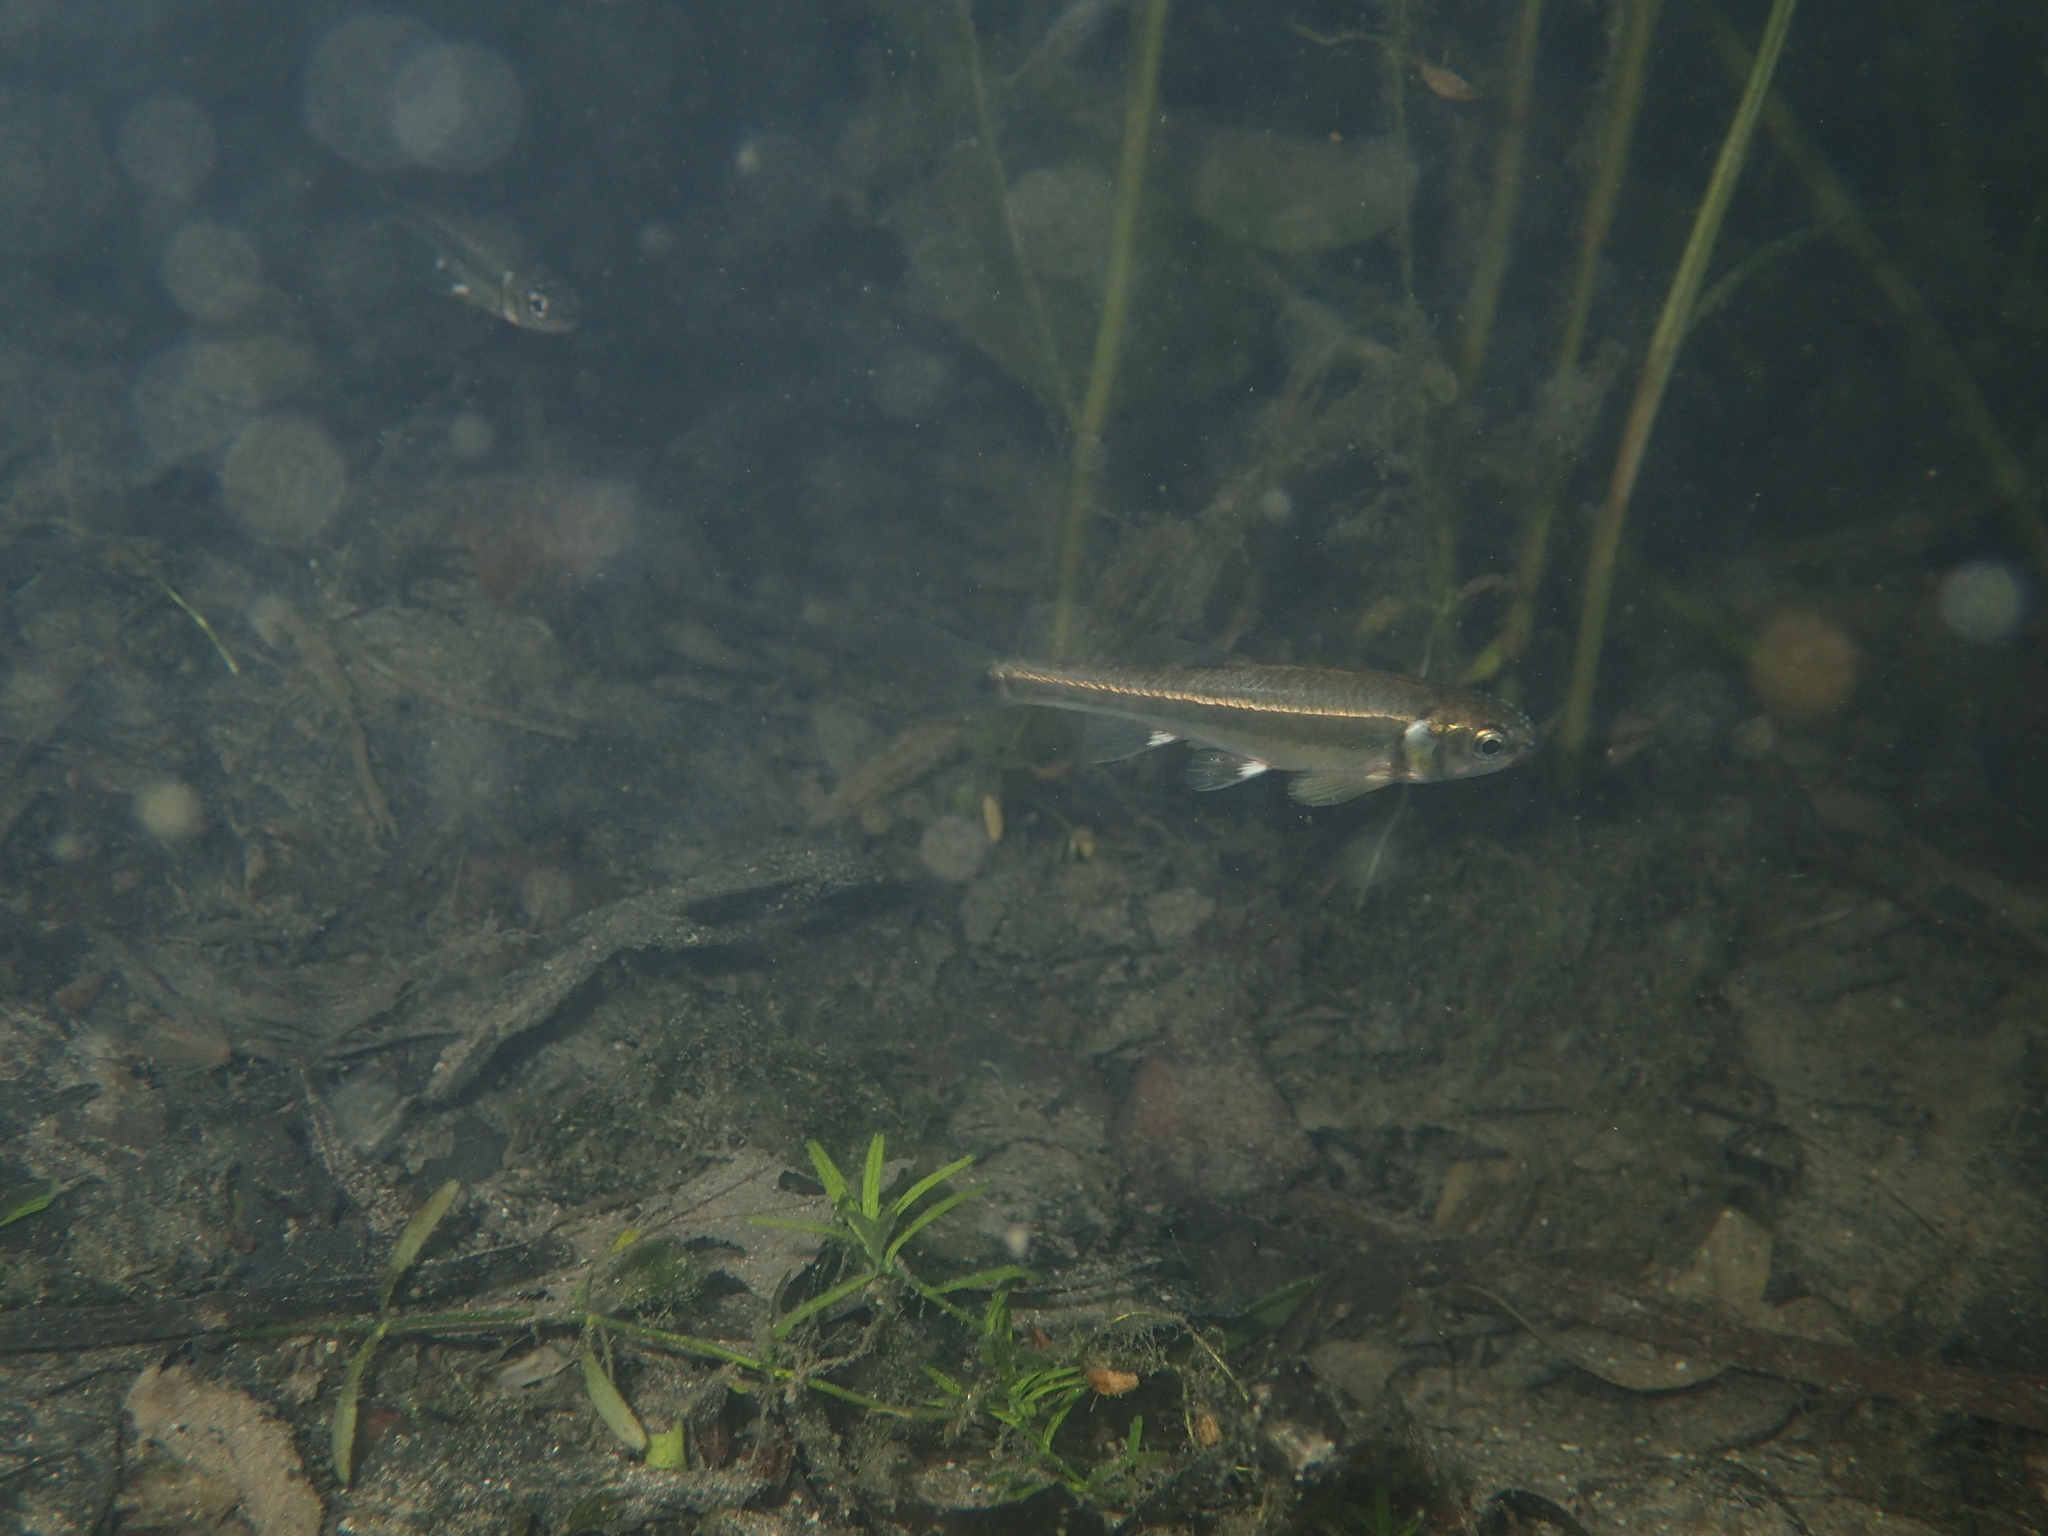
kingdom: Animalia
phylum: Chordata
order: Cypriniformes
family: Cyprinidae
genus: Phoxinus
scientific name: Phoxinus septimaniae
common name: Languedoc minnow
